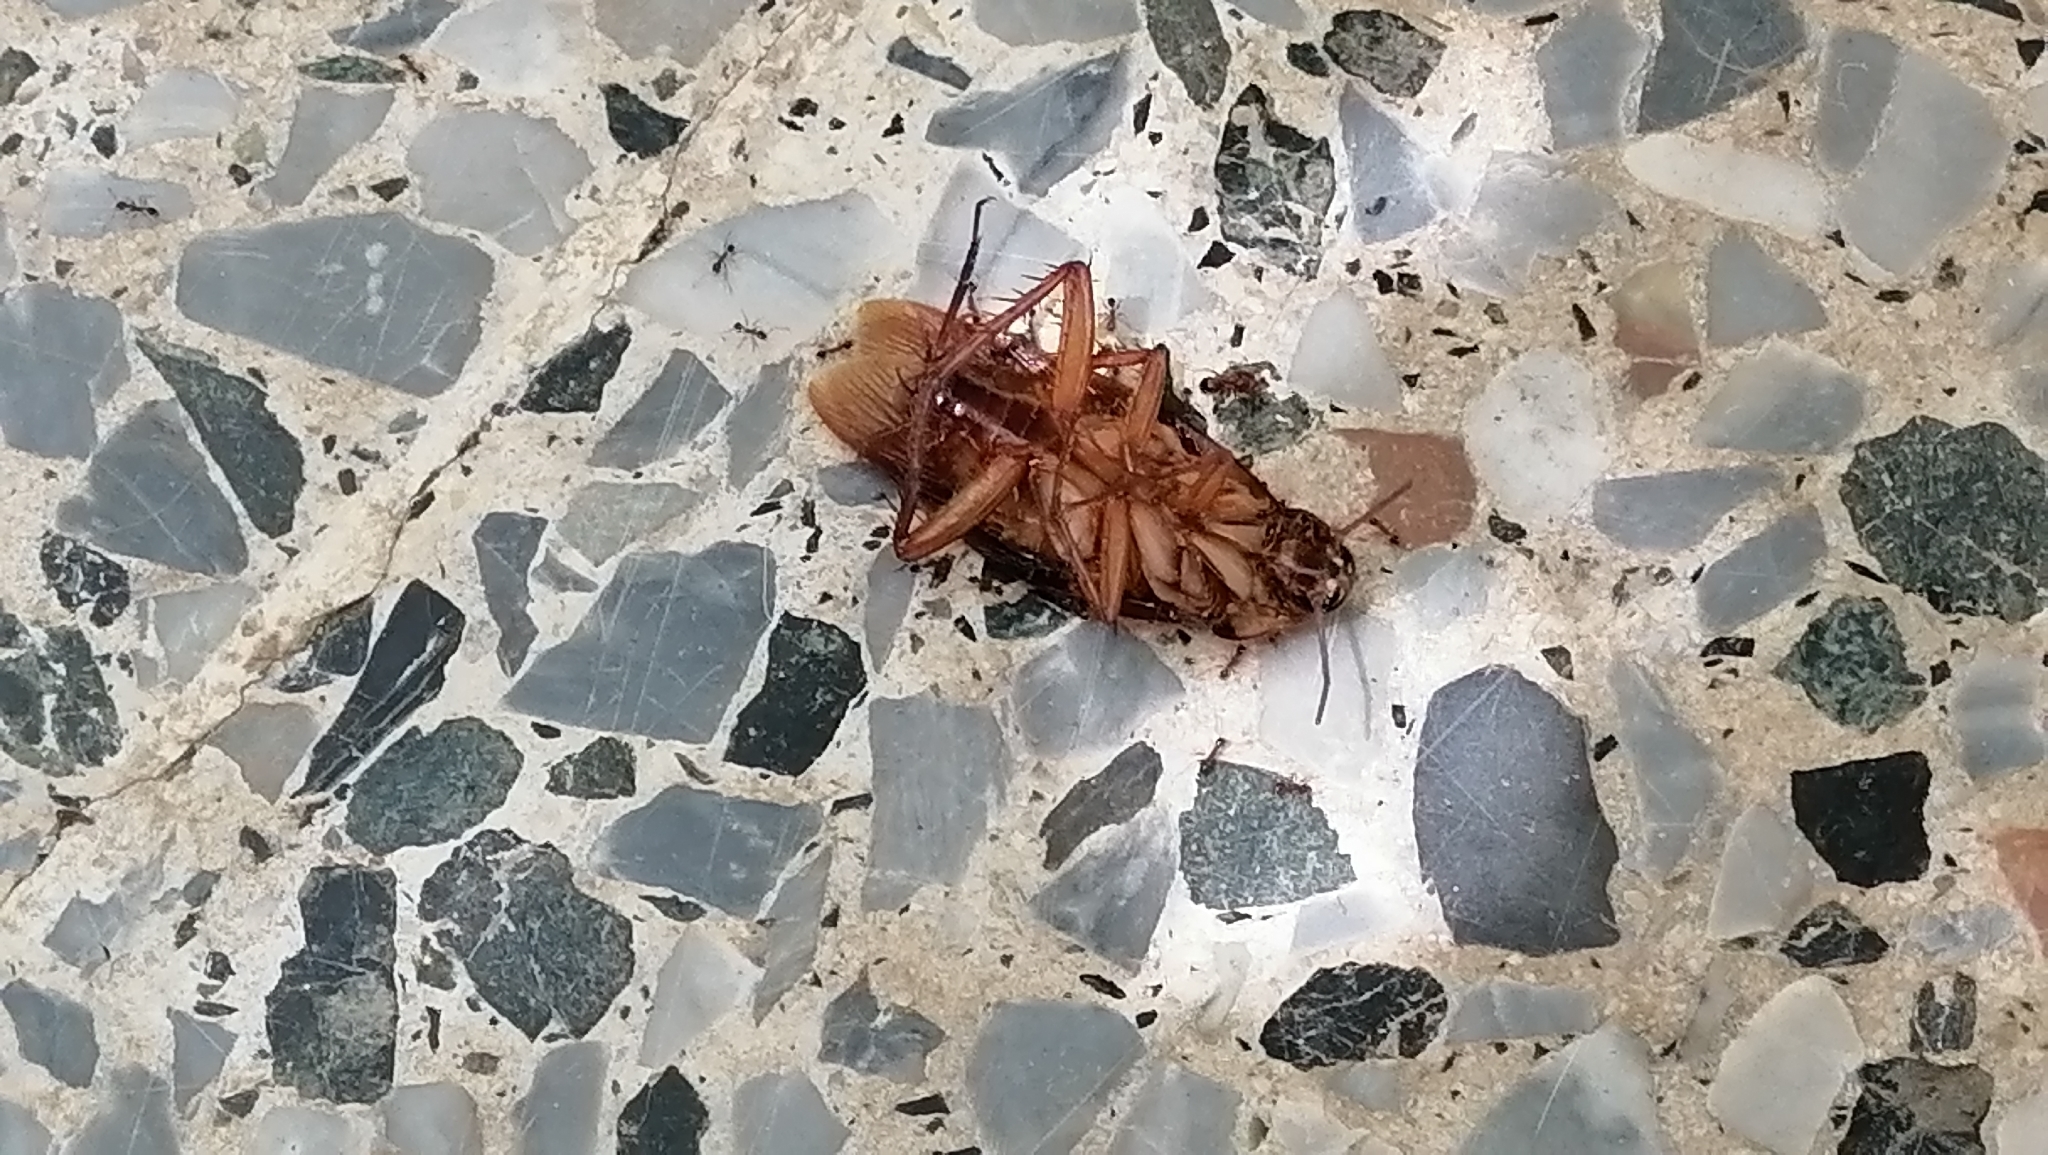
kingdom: Animalia
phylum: Arthropoda
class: Insecta
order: Blattodea
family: Blattidae
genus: Periplaneta
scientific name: Periplaneta americana
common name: American cockroach
